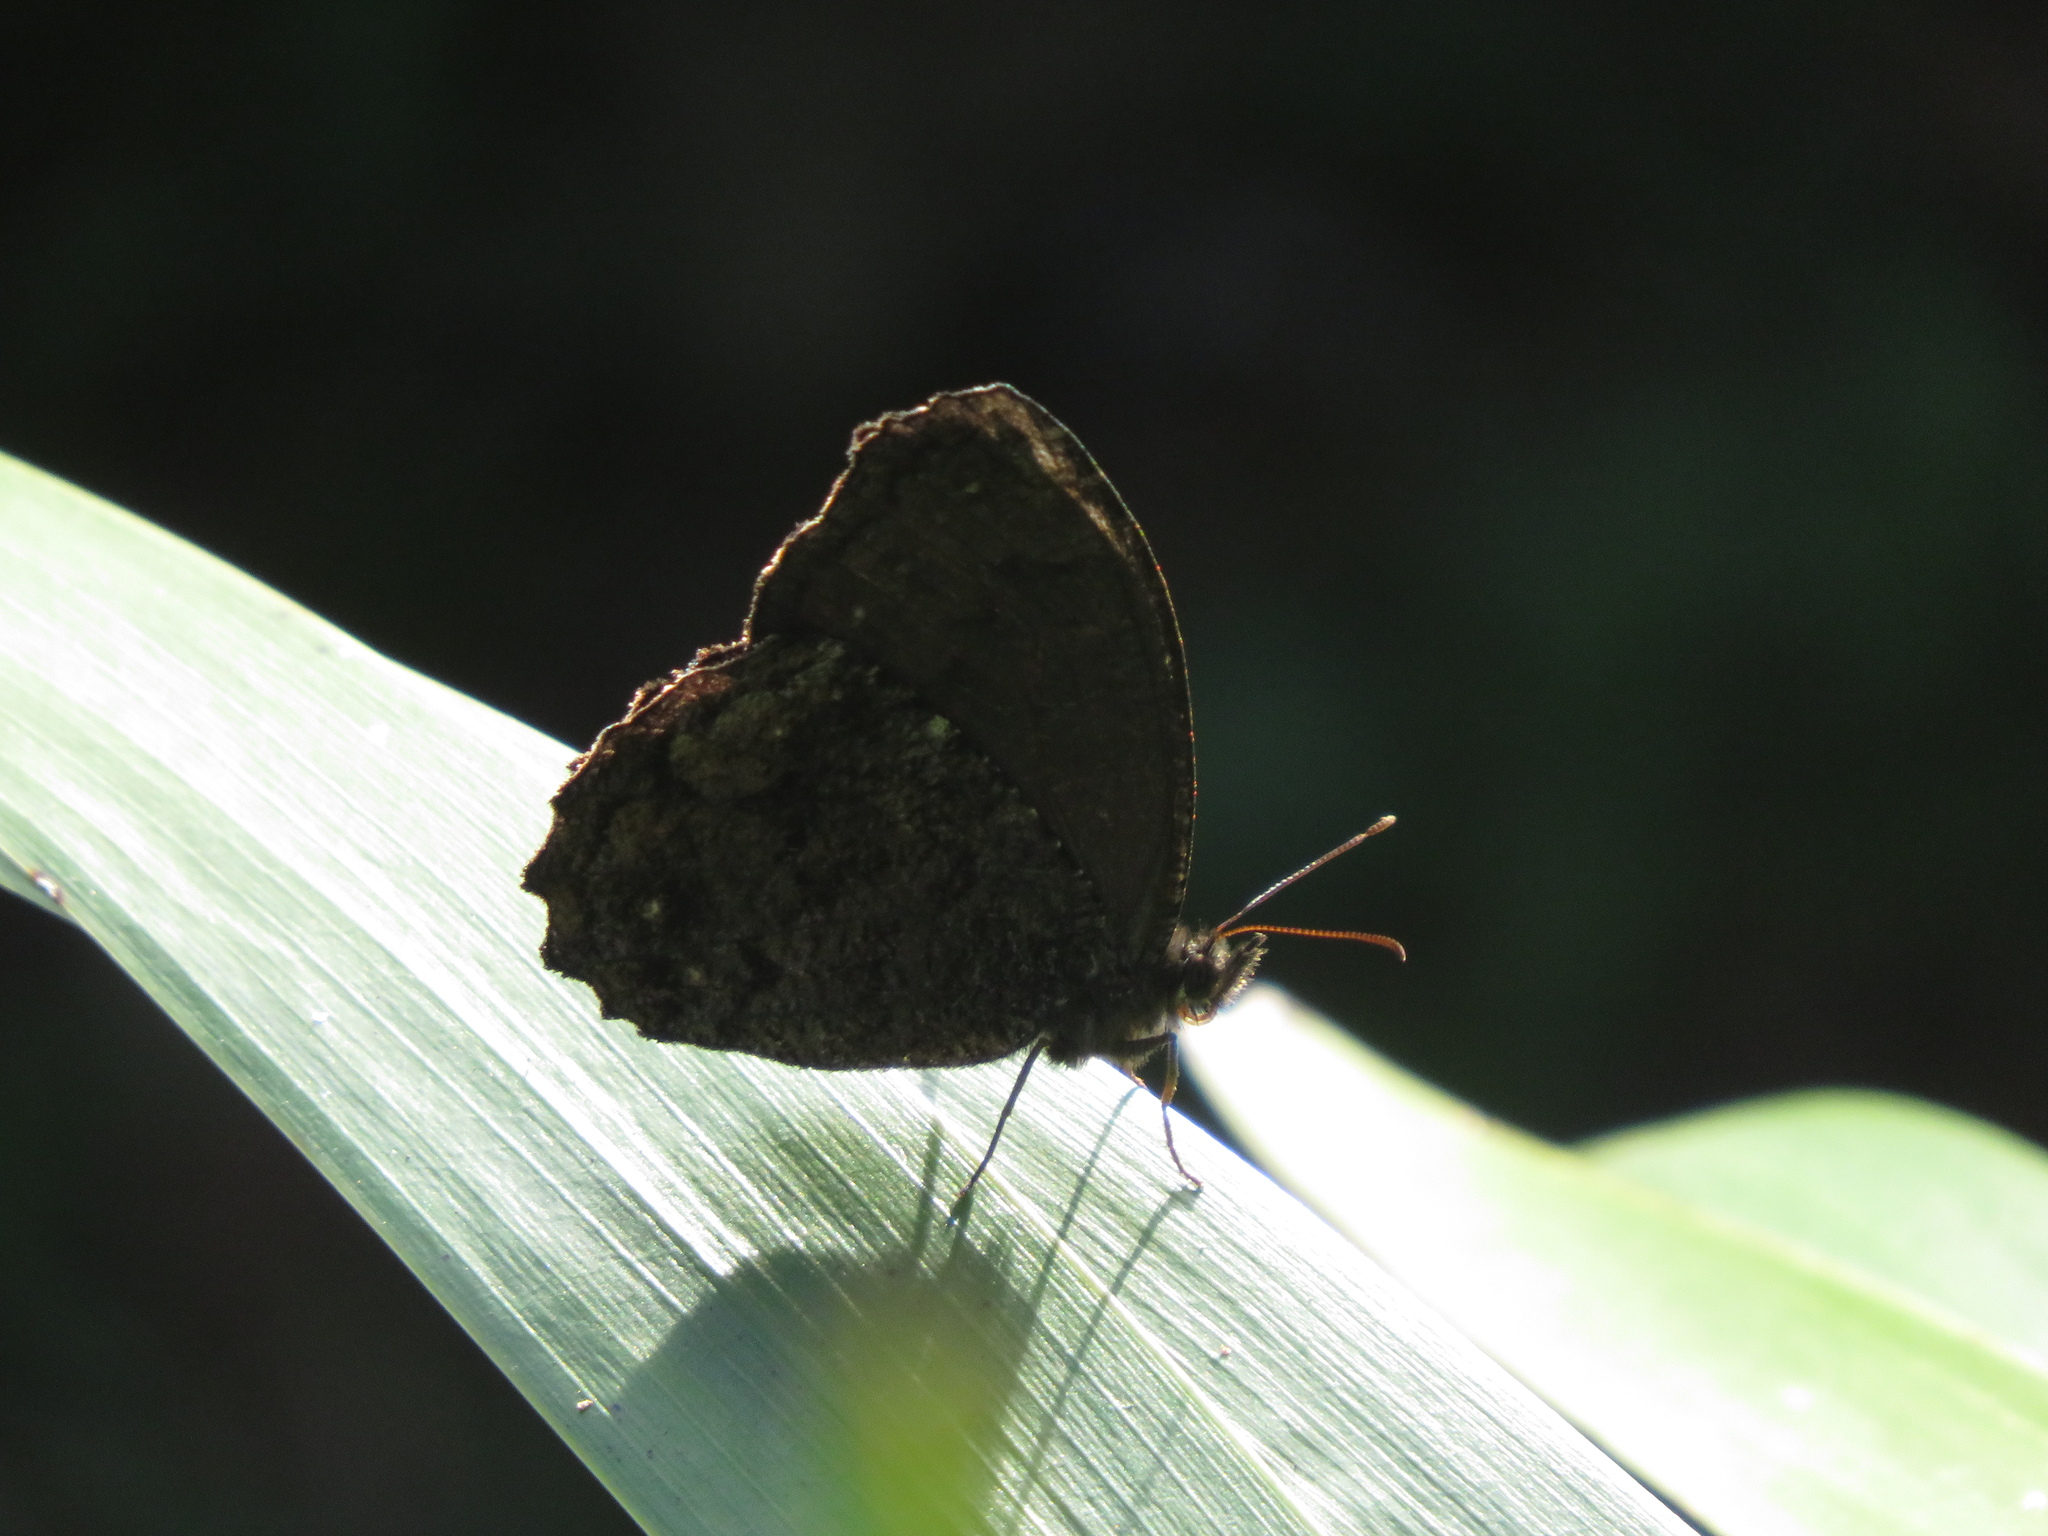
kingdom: Animalia
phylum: Arthropoda
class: Insecta
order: Lepidoptera
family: Nymphalidae
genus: Praepedaliodes
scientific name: Praepedaliodes phanias
